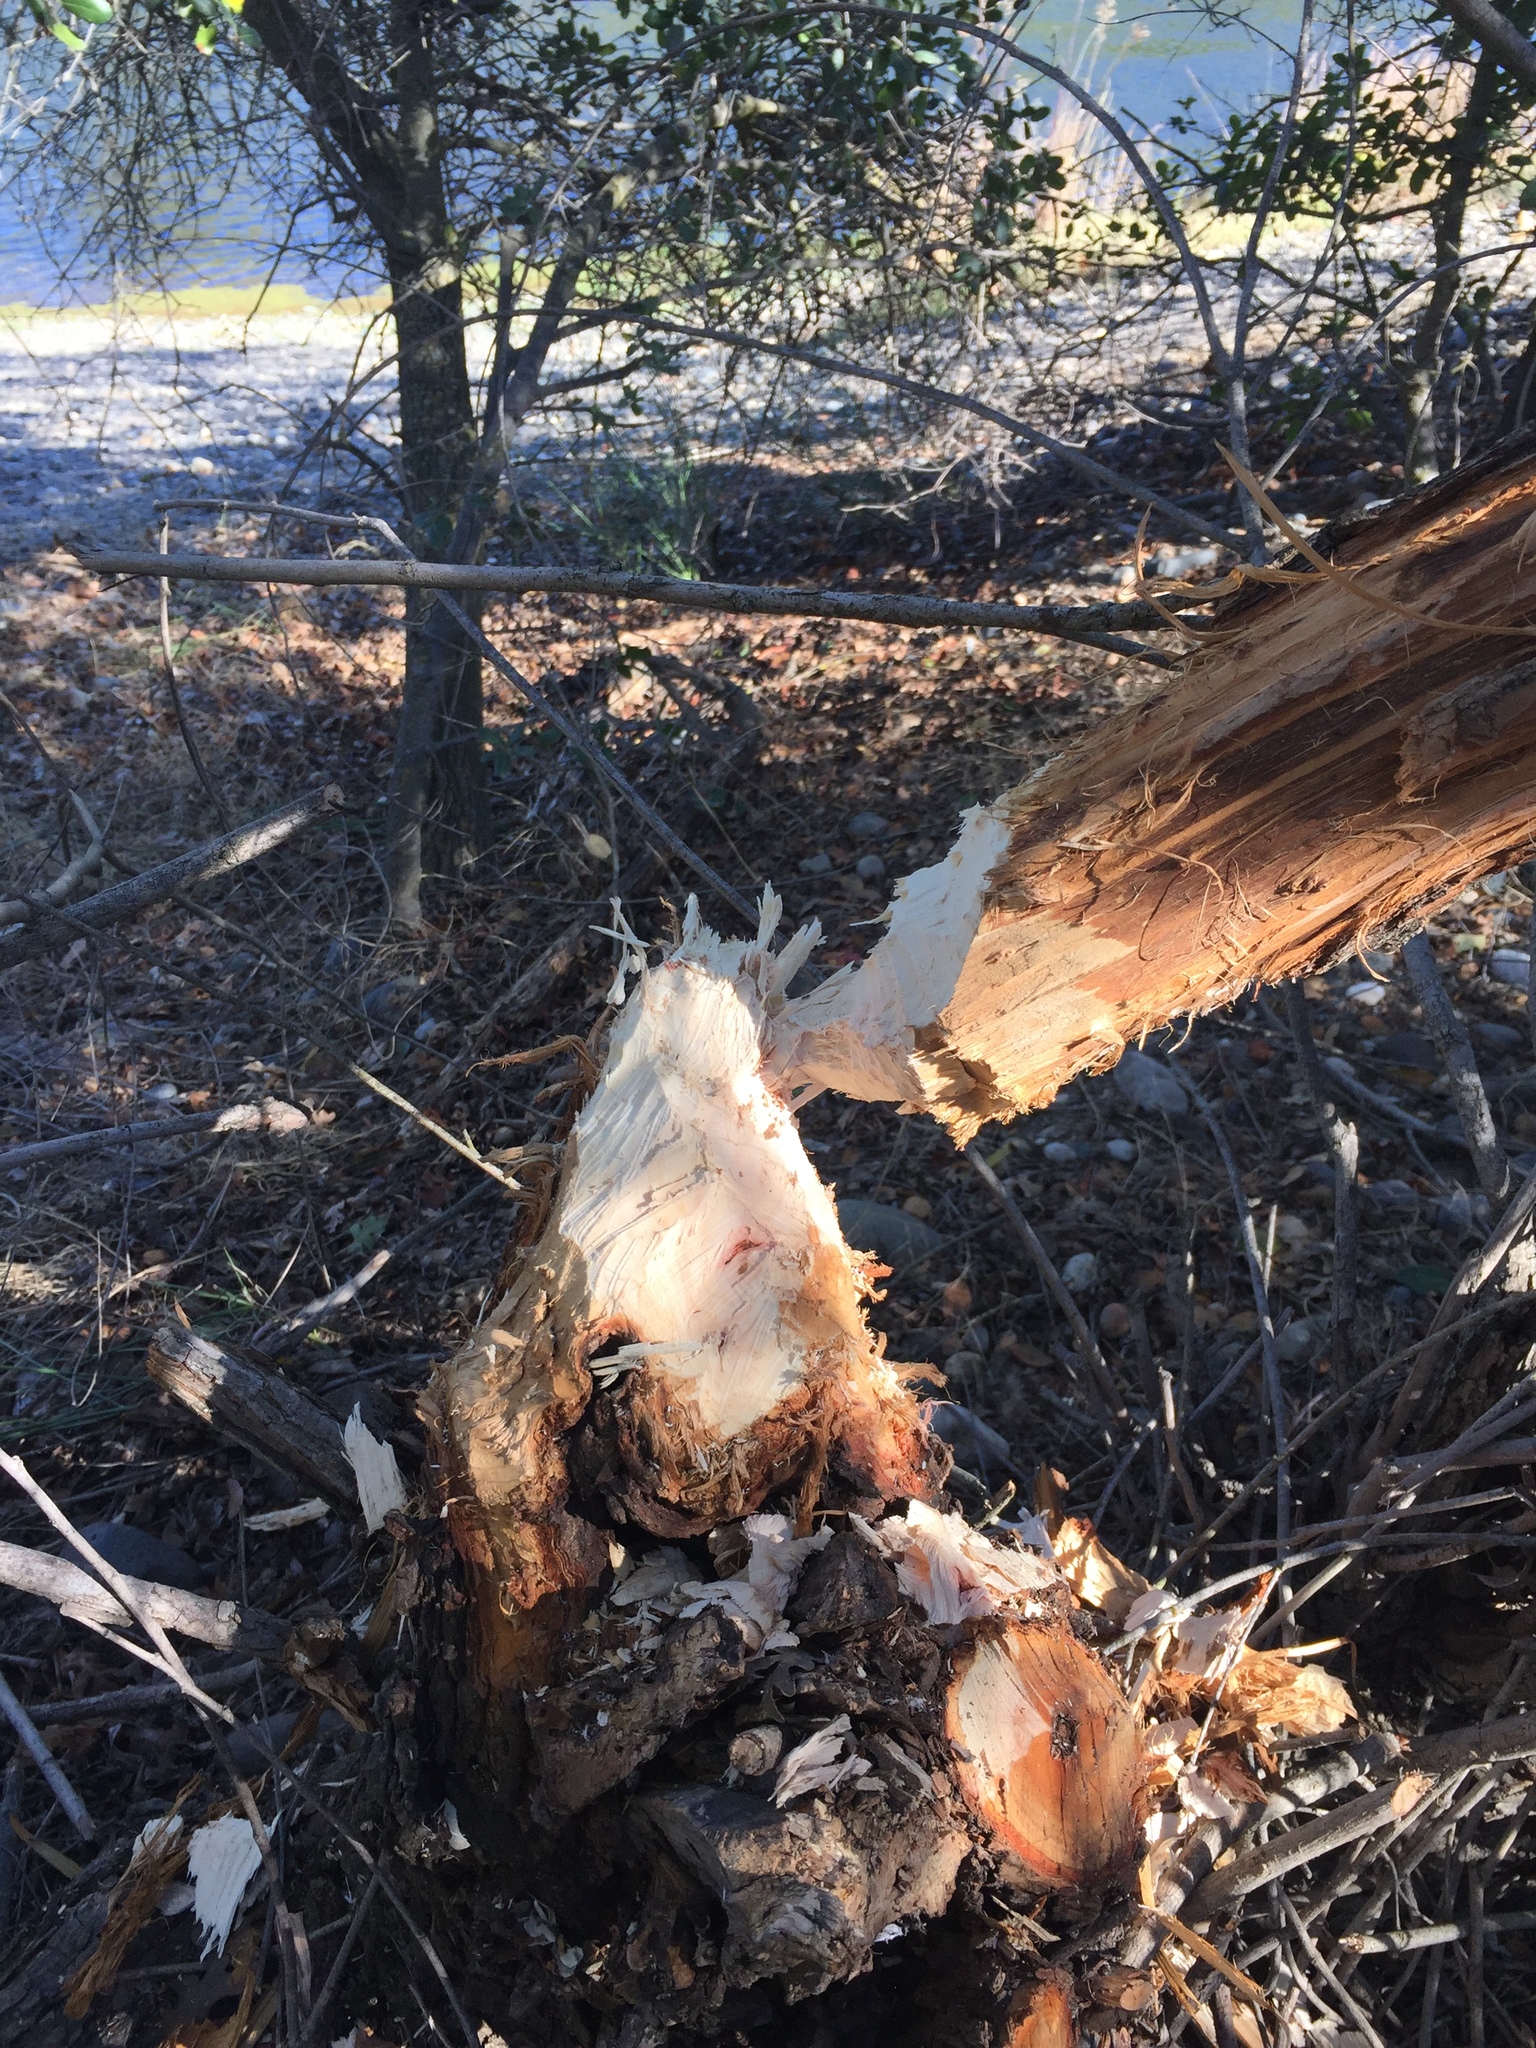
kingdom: Animalia
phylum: Chordata
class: Mammalia
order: Rodentia
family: Castoridae
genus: Castor
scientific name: Castor canadensis
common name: American beaver
